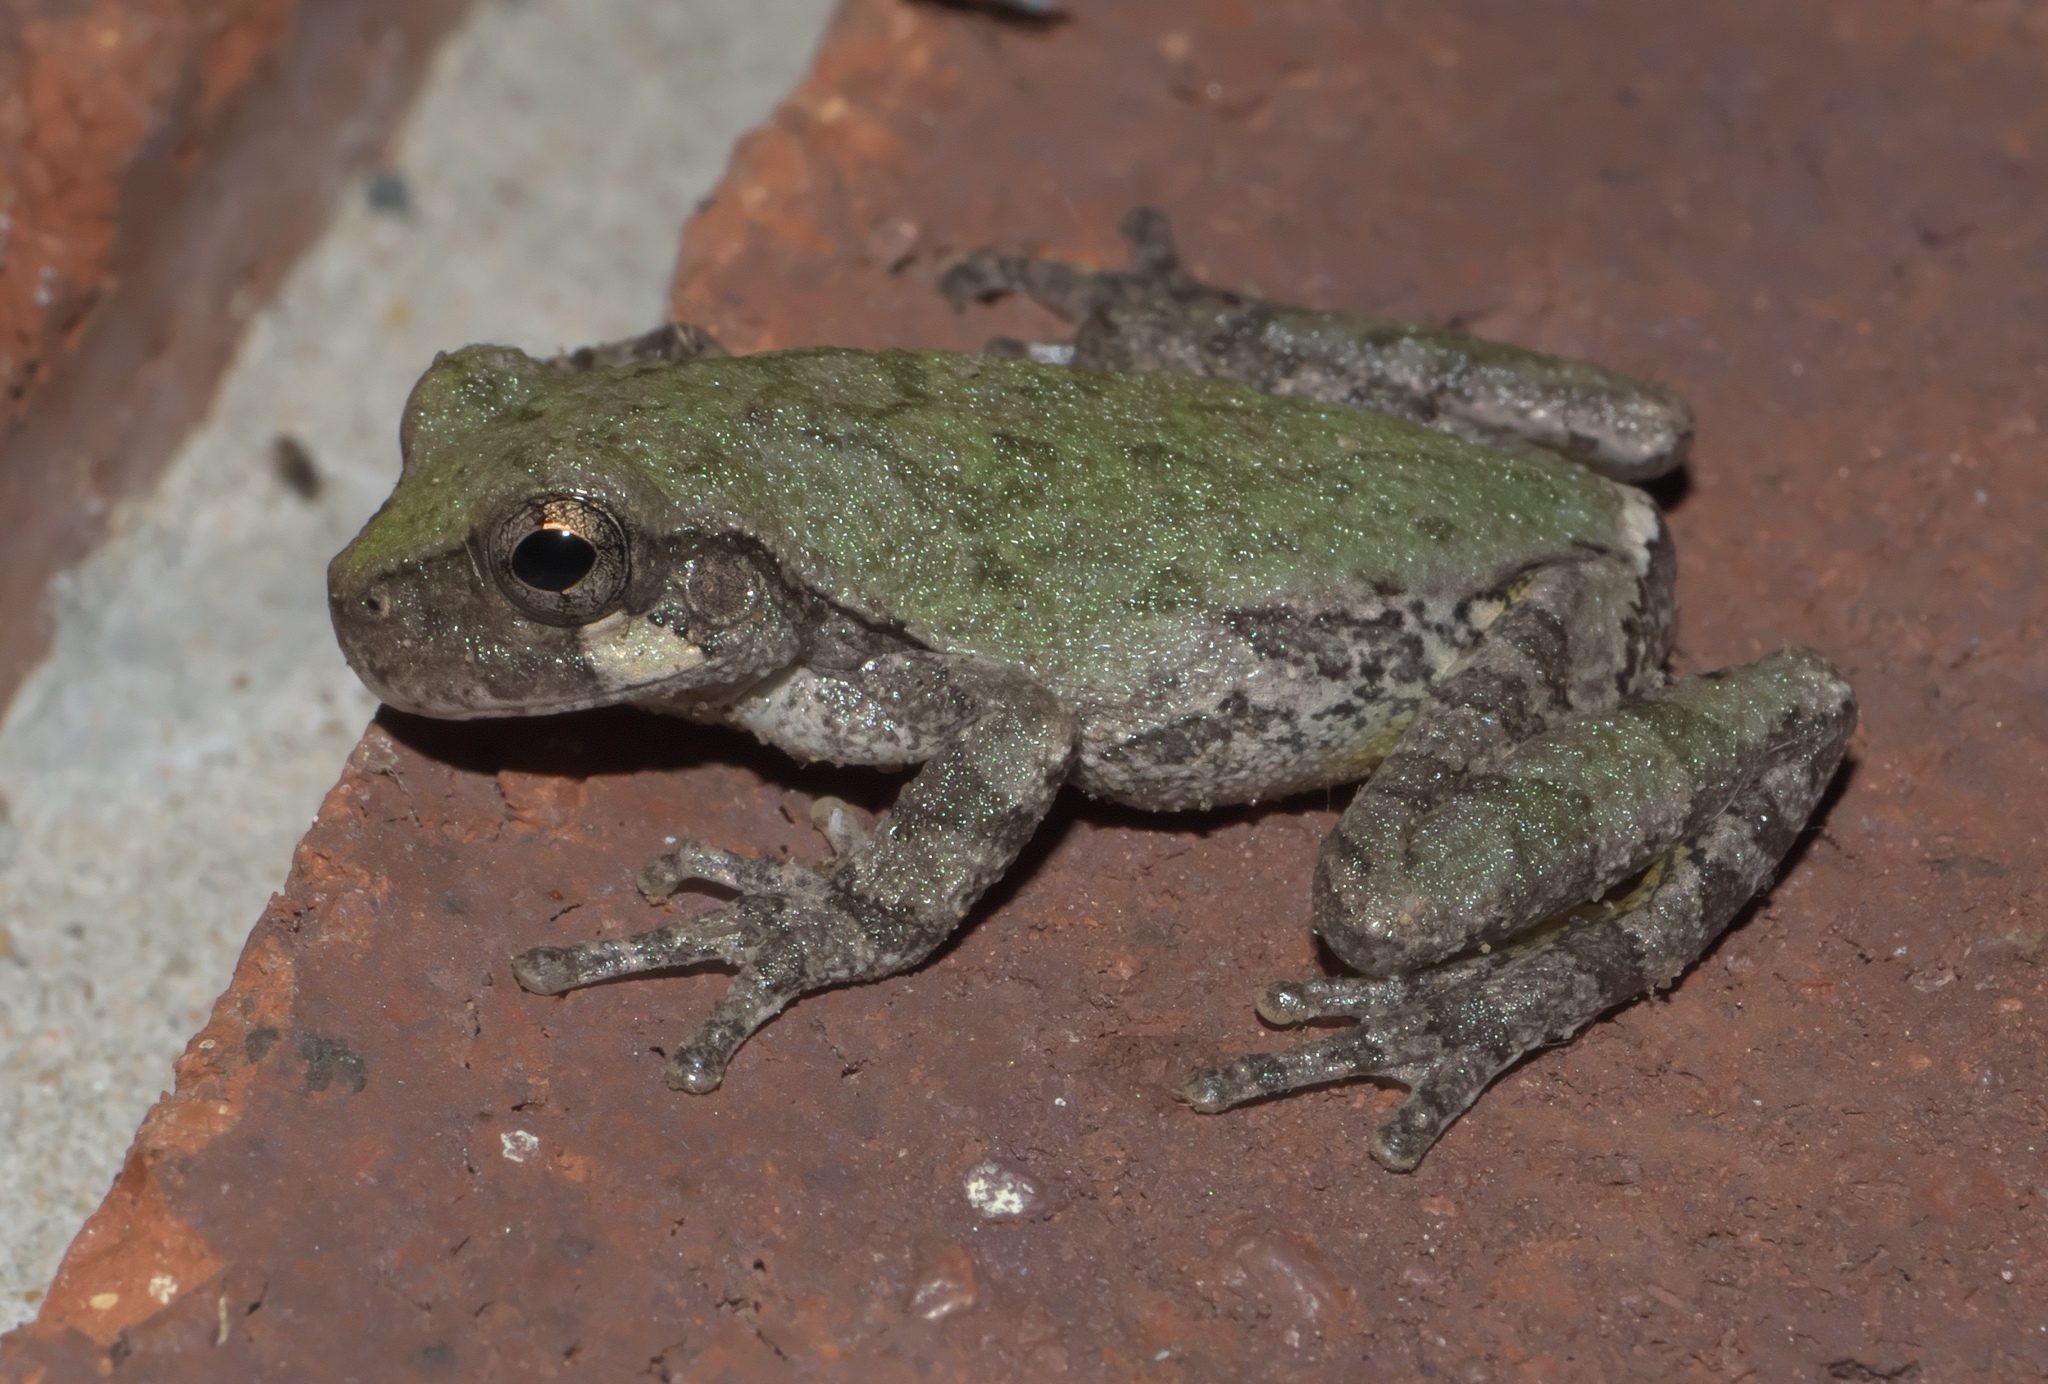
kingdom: Animalia
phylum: Chordata
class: Amphibia
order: Anura
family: Hylidae
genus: Hyla
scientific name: Hyla
